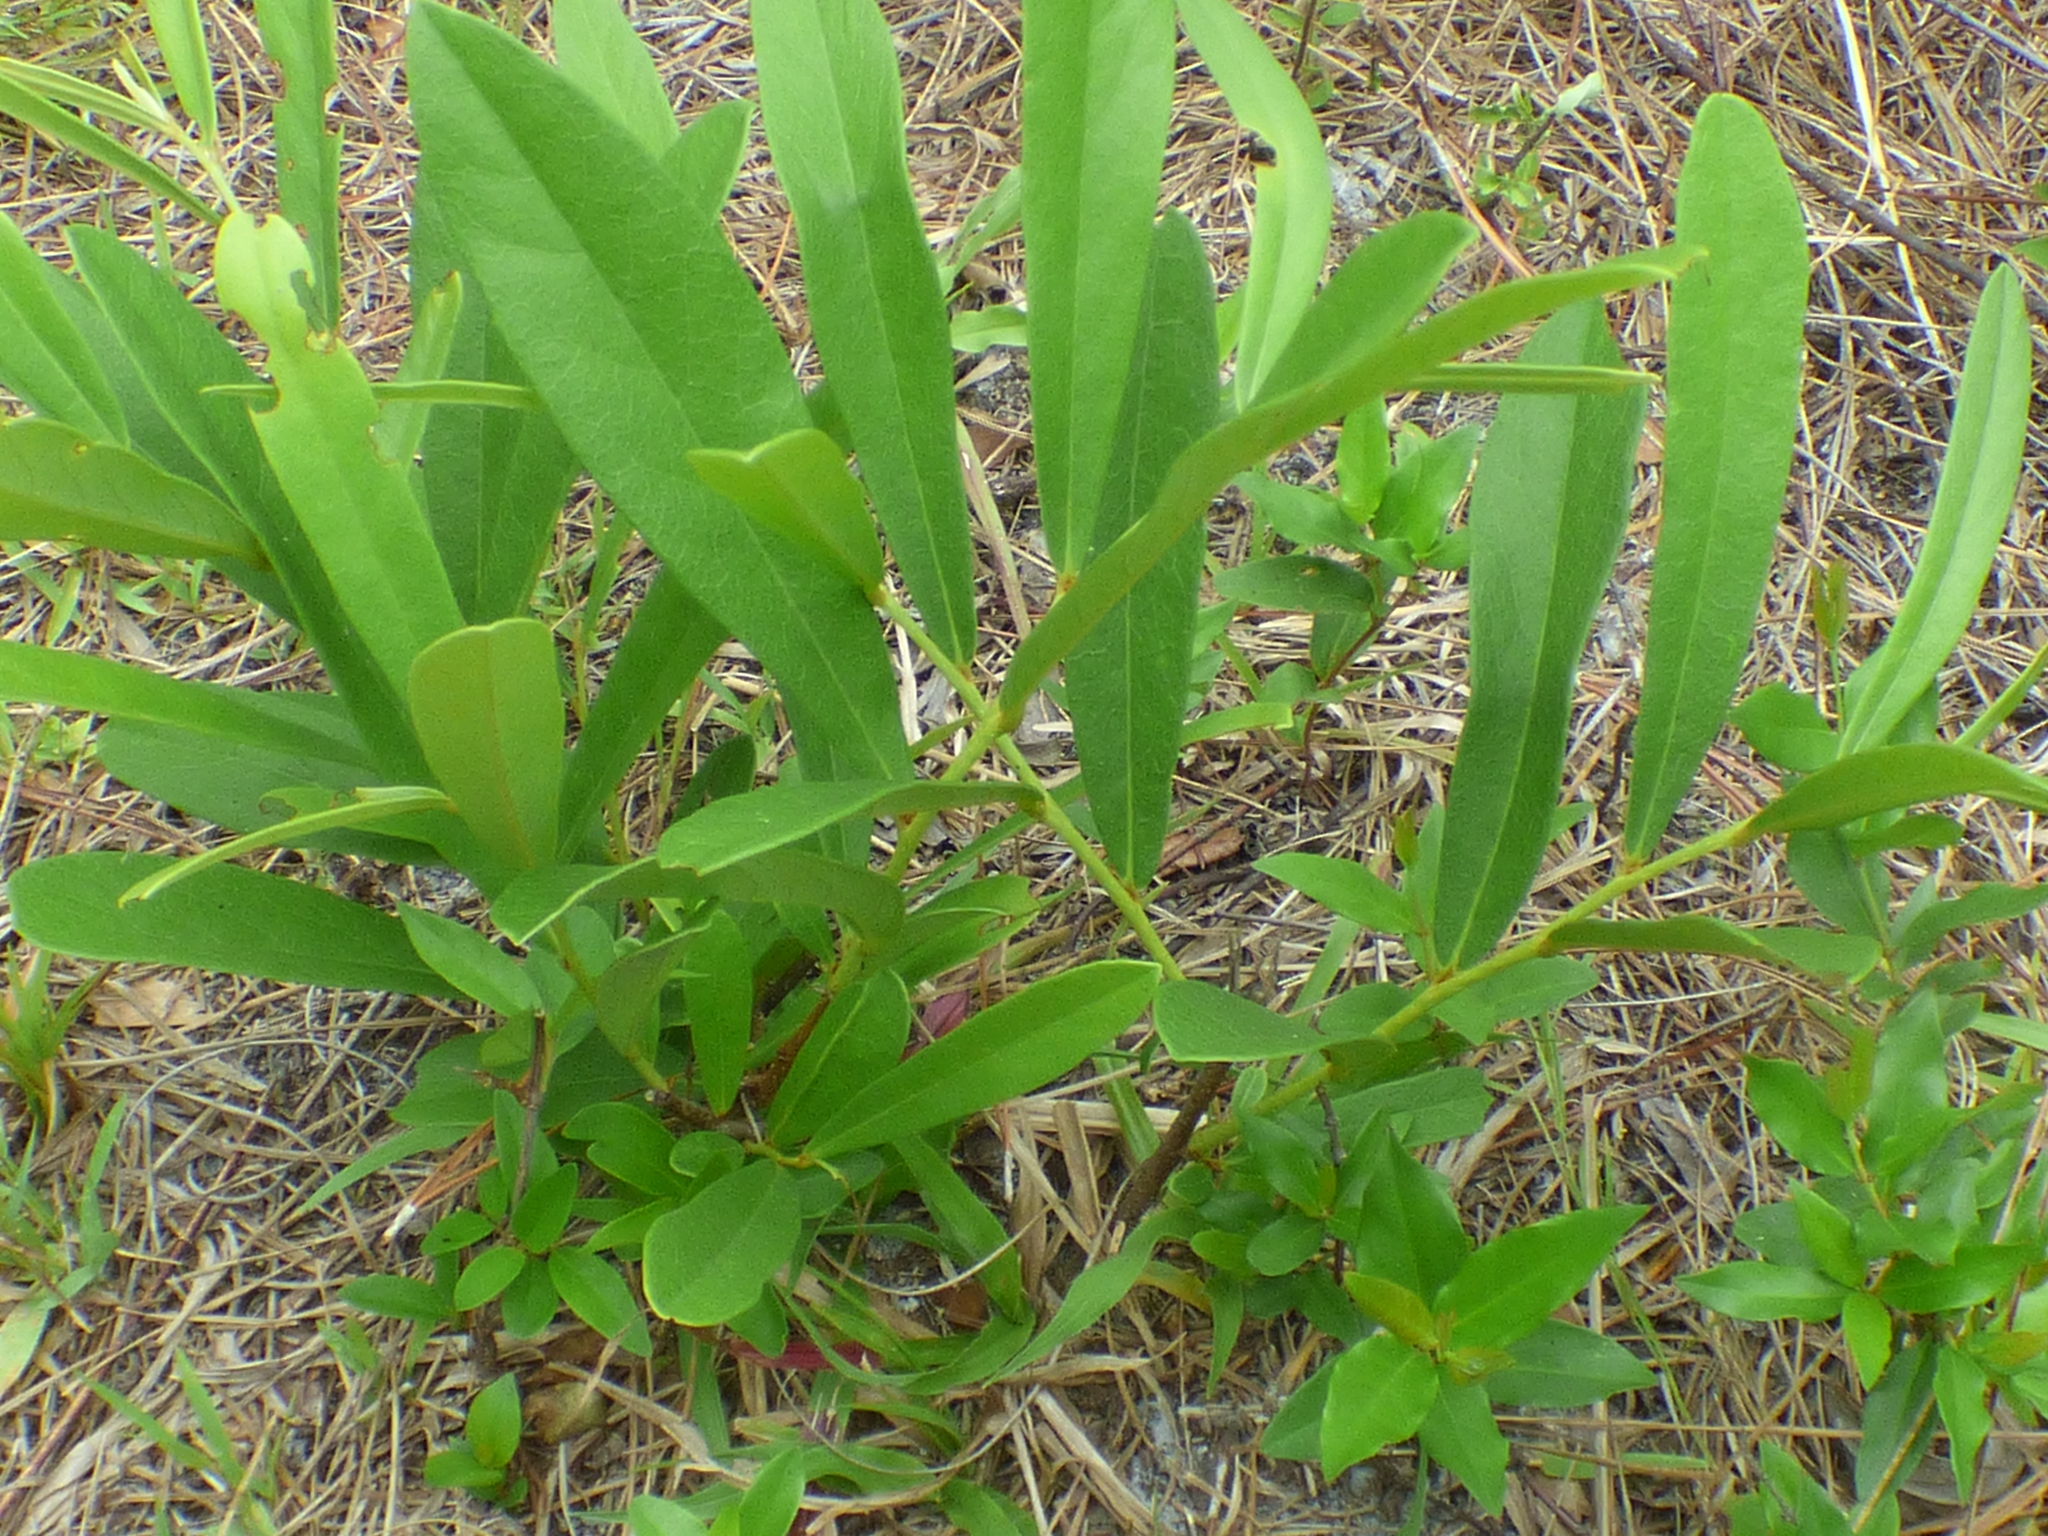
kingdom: Plantae
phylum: Tracheophyta
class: Magnoliopsida
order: Magnoliales
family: Annonaceae
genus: Asimina
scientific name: Asimina pygmaea
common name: Dwarf pawpaw
